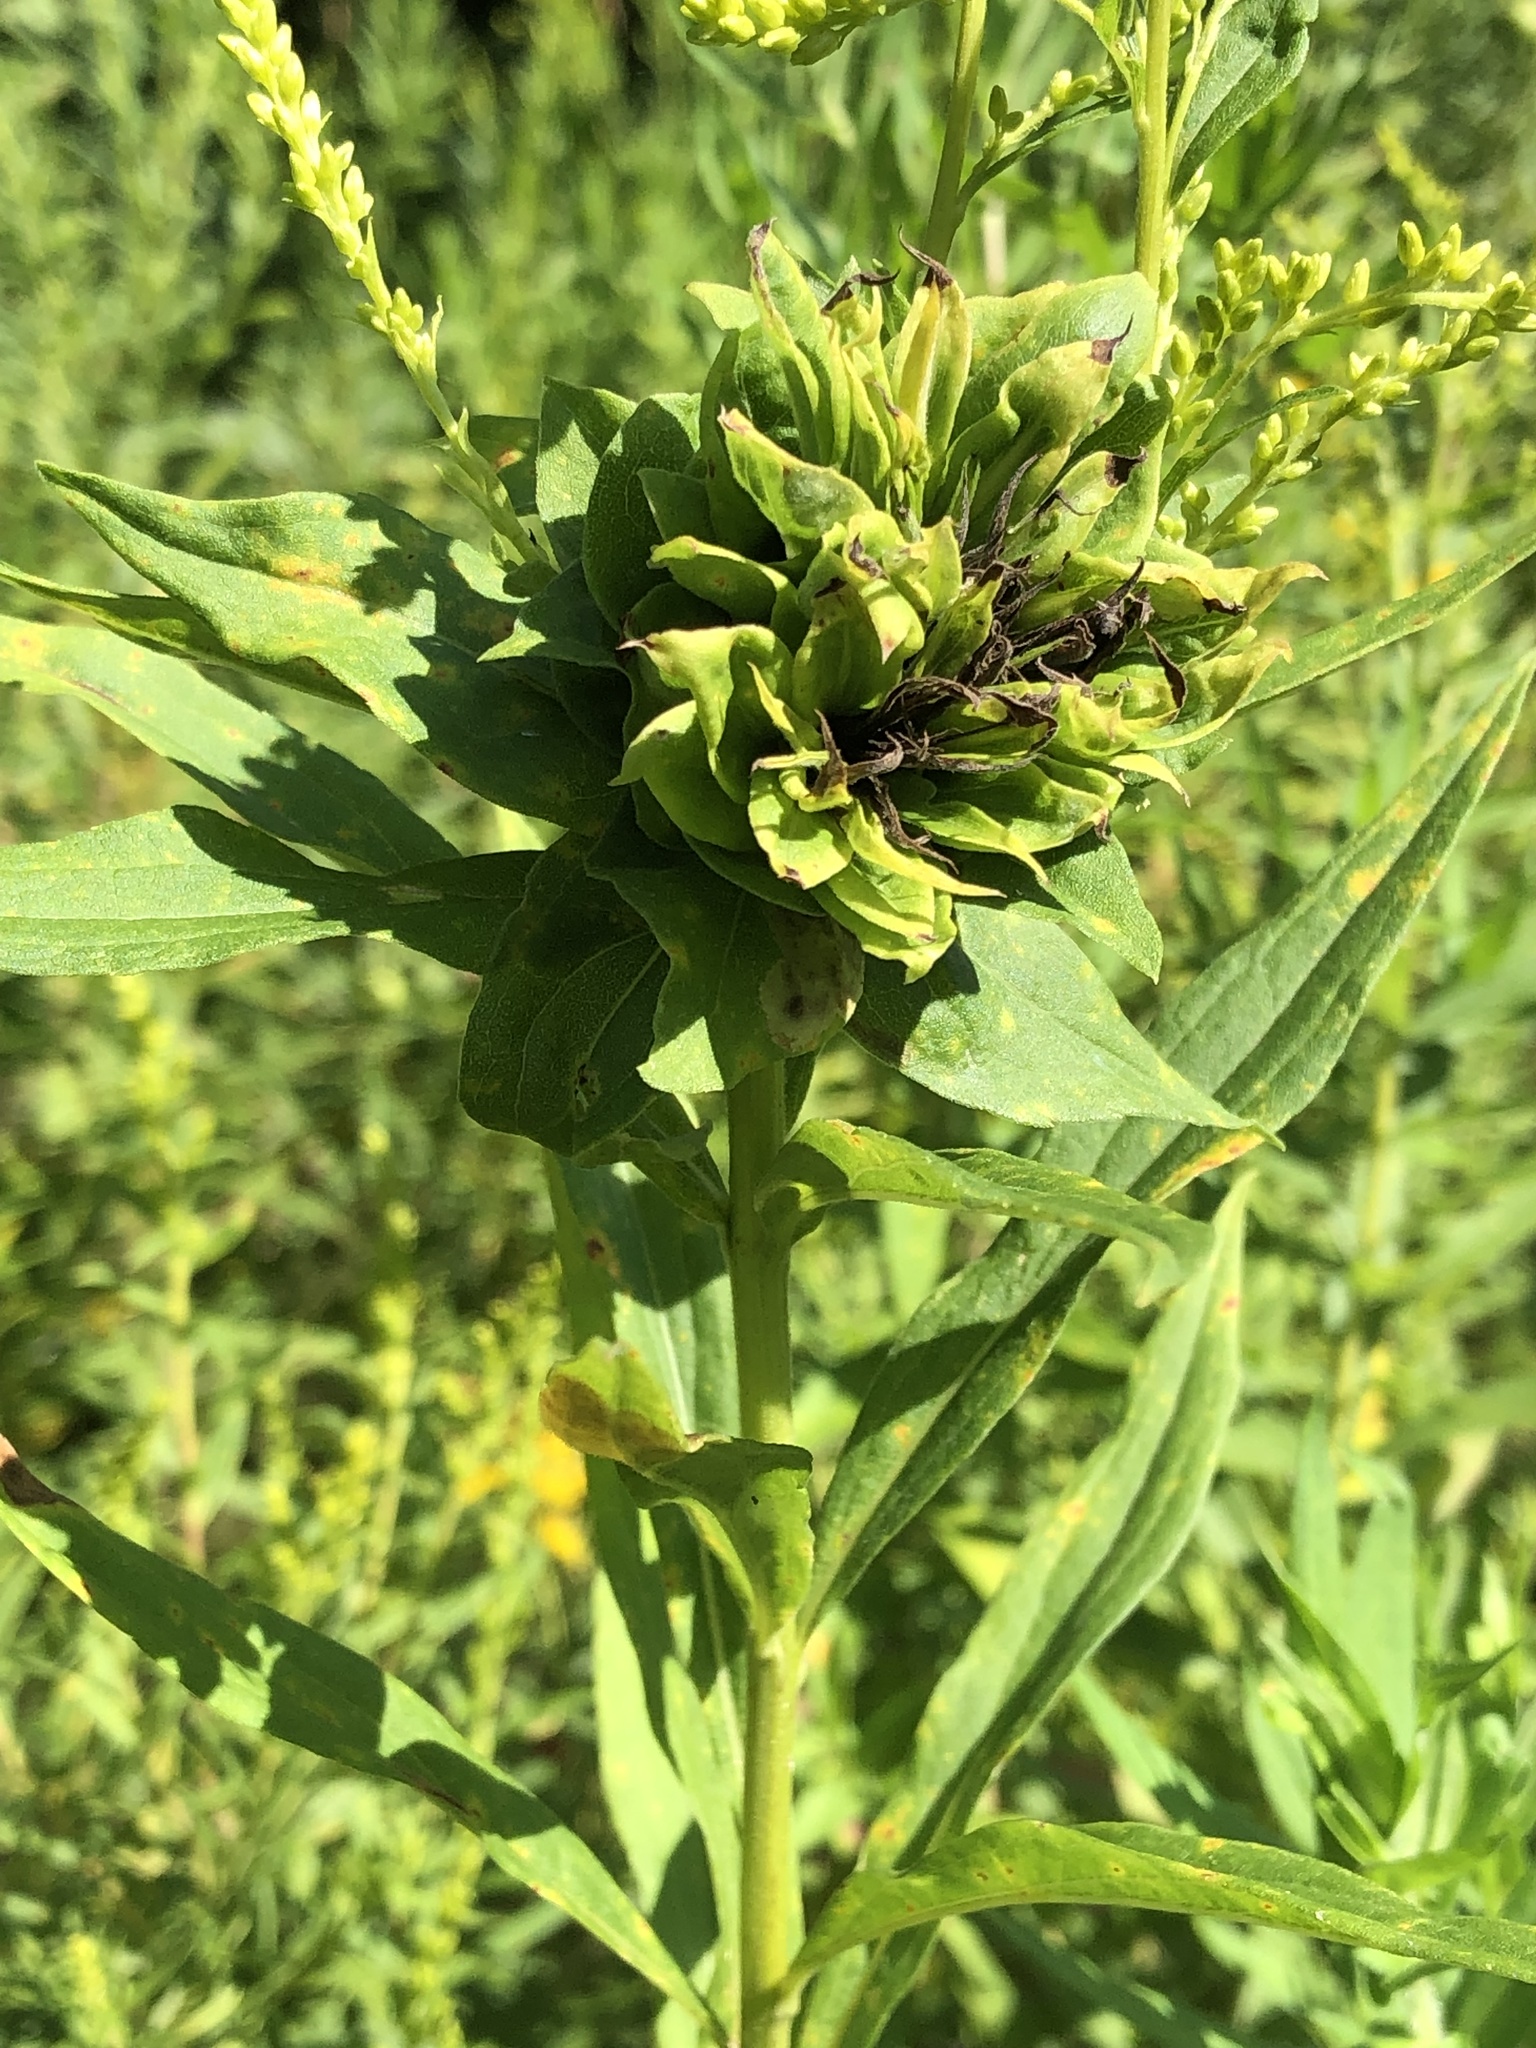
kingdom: Animalia
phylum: Arthropoda
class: Insecta
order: Diptera
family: Cecidomyiidae
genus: Rhopalomyia
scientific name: Rhopalomyia solidaginis
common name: Goldenrod bunch gall midge
